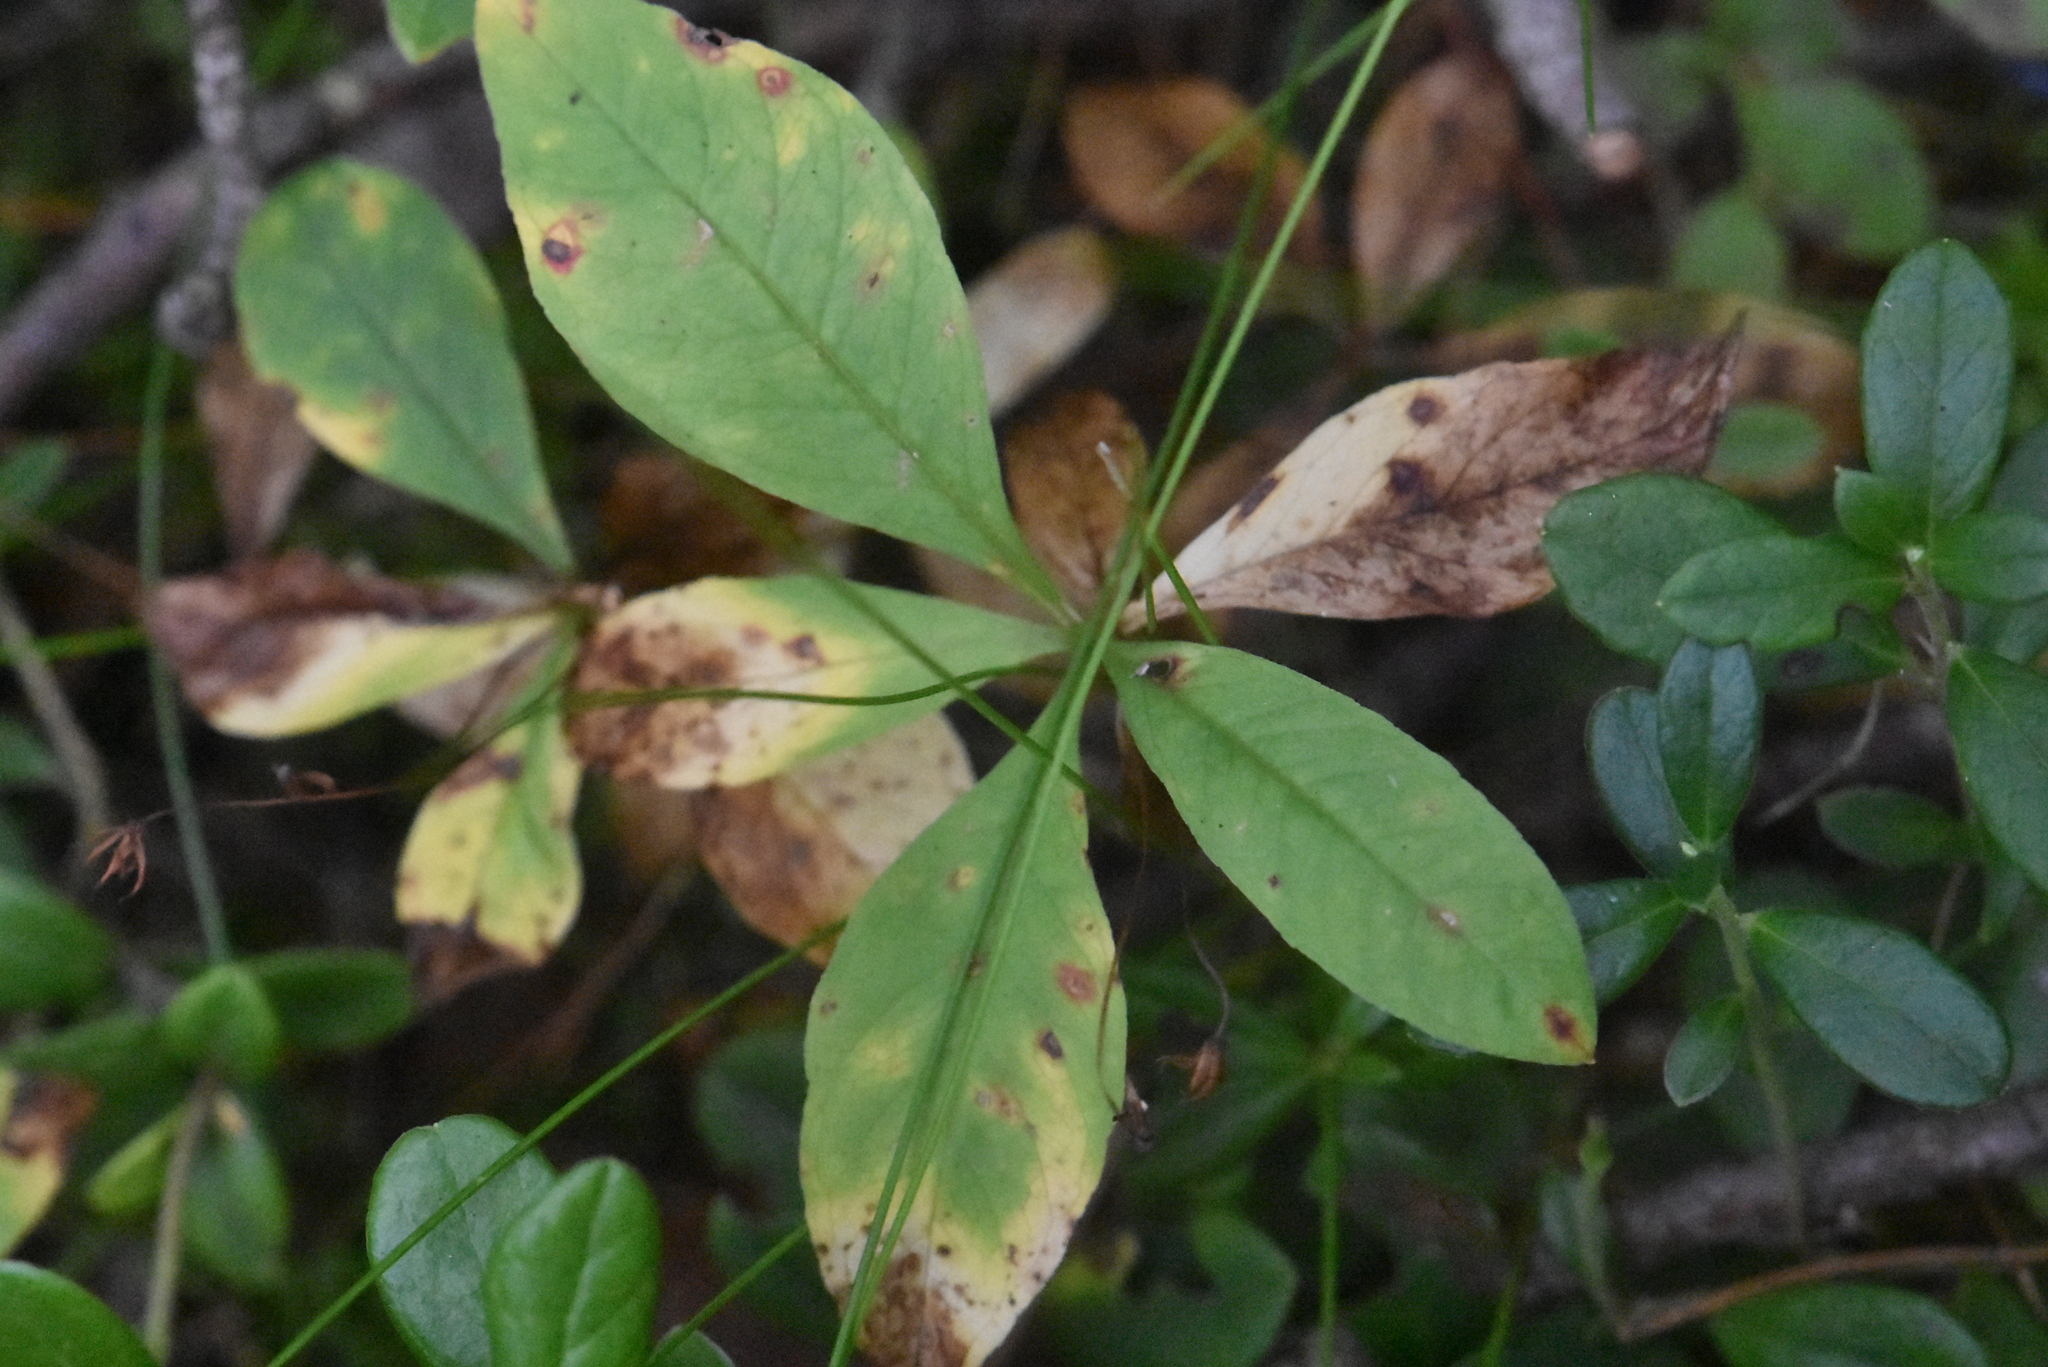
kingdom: Plantae
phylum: Tracheophyta
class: Magnoliopsida
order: Ericales
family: Primulaceae
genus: Lysimachia
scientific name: Lysimachia europaea
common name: Arctic starflower
